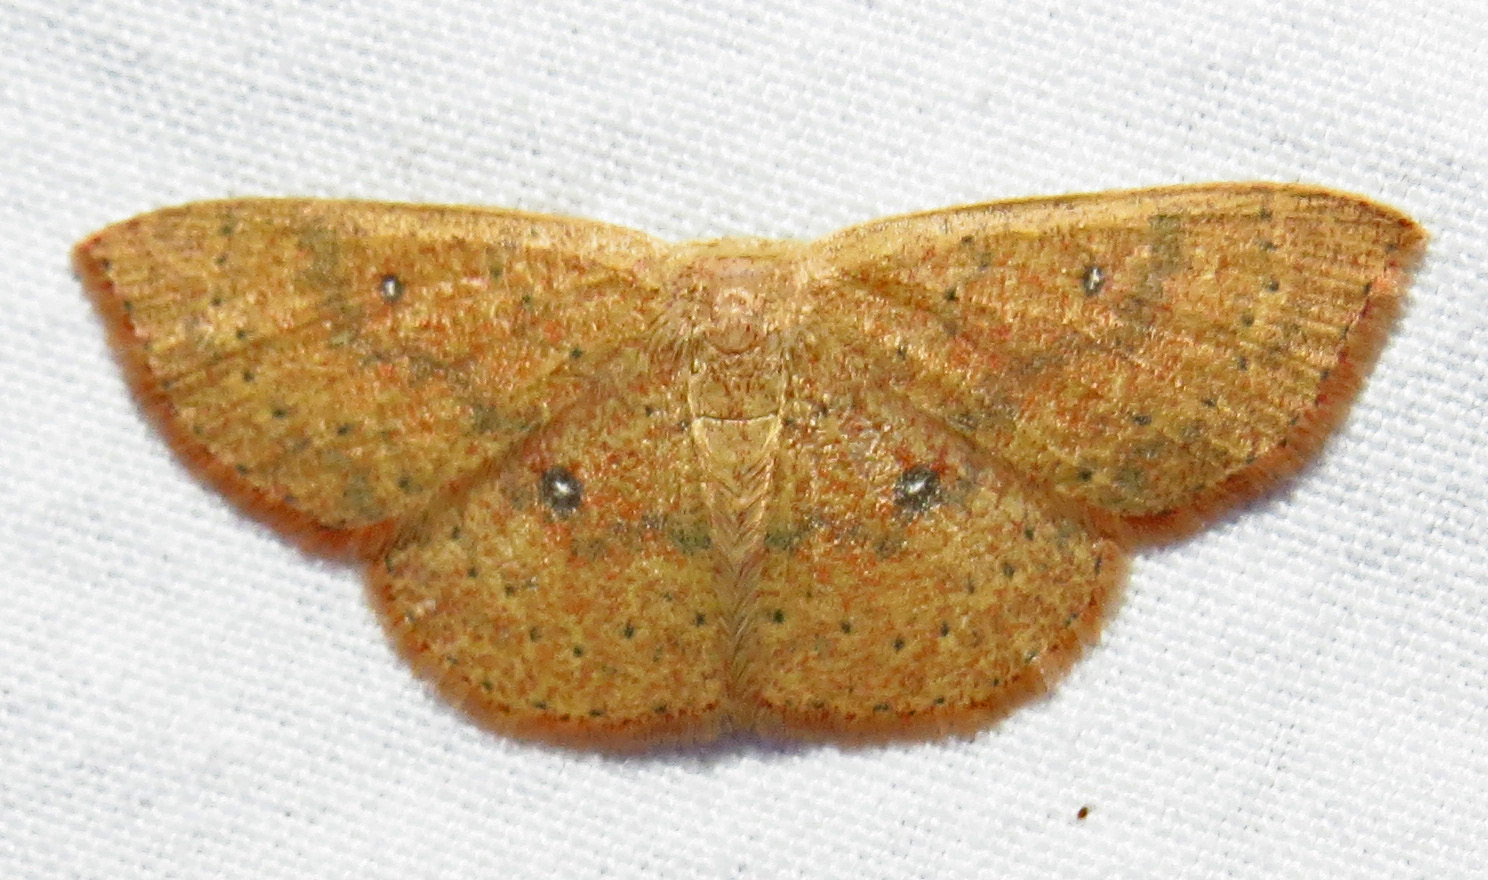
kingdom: Animalia
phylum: Arthropoda
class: Insecta
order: Lepidoptera
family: Geometridae
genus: Cyclophora
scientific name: Cyclophora packardi
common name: Packard's wave
